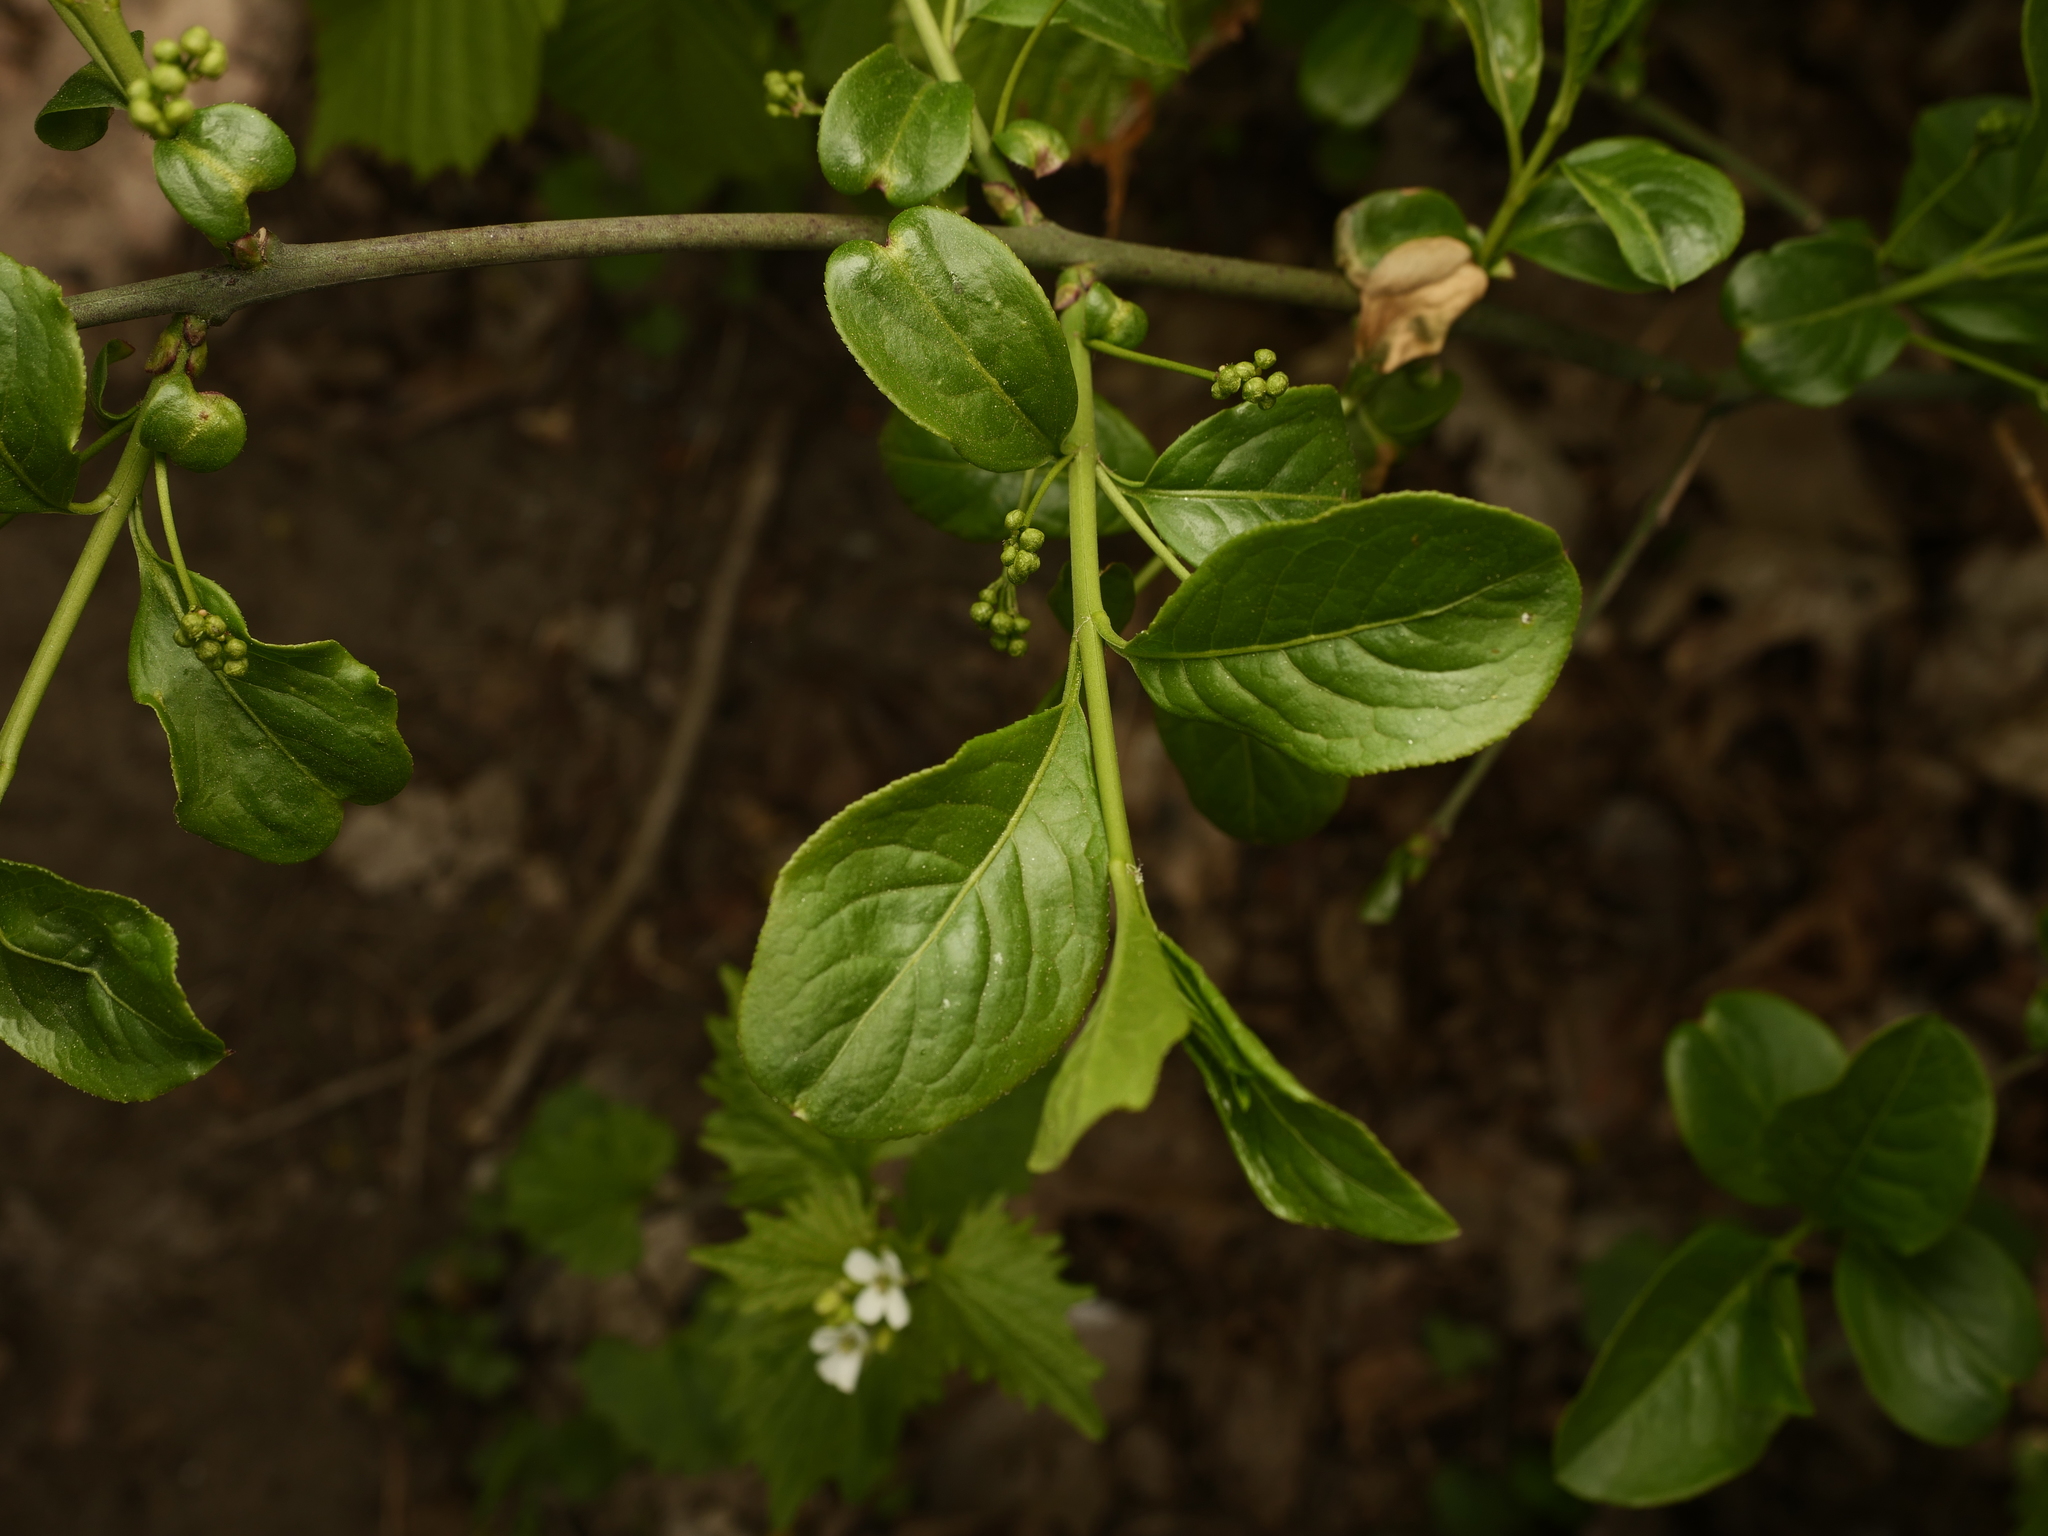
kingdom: Plantae
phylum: Tracheophyta
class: Magnoliopsida
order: Celastrales
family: Celastraceae
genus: Euonymus
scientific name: Euonymus europaeus
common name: Spindle
